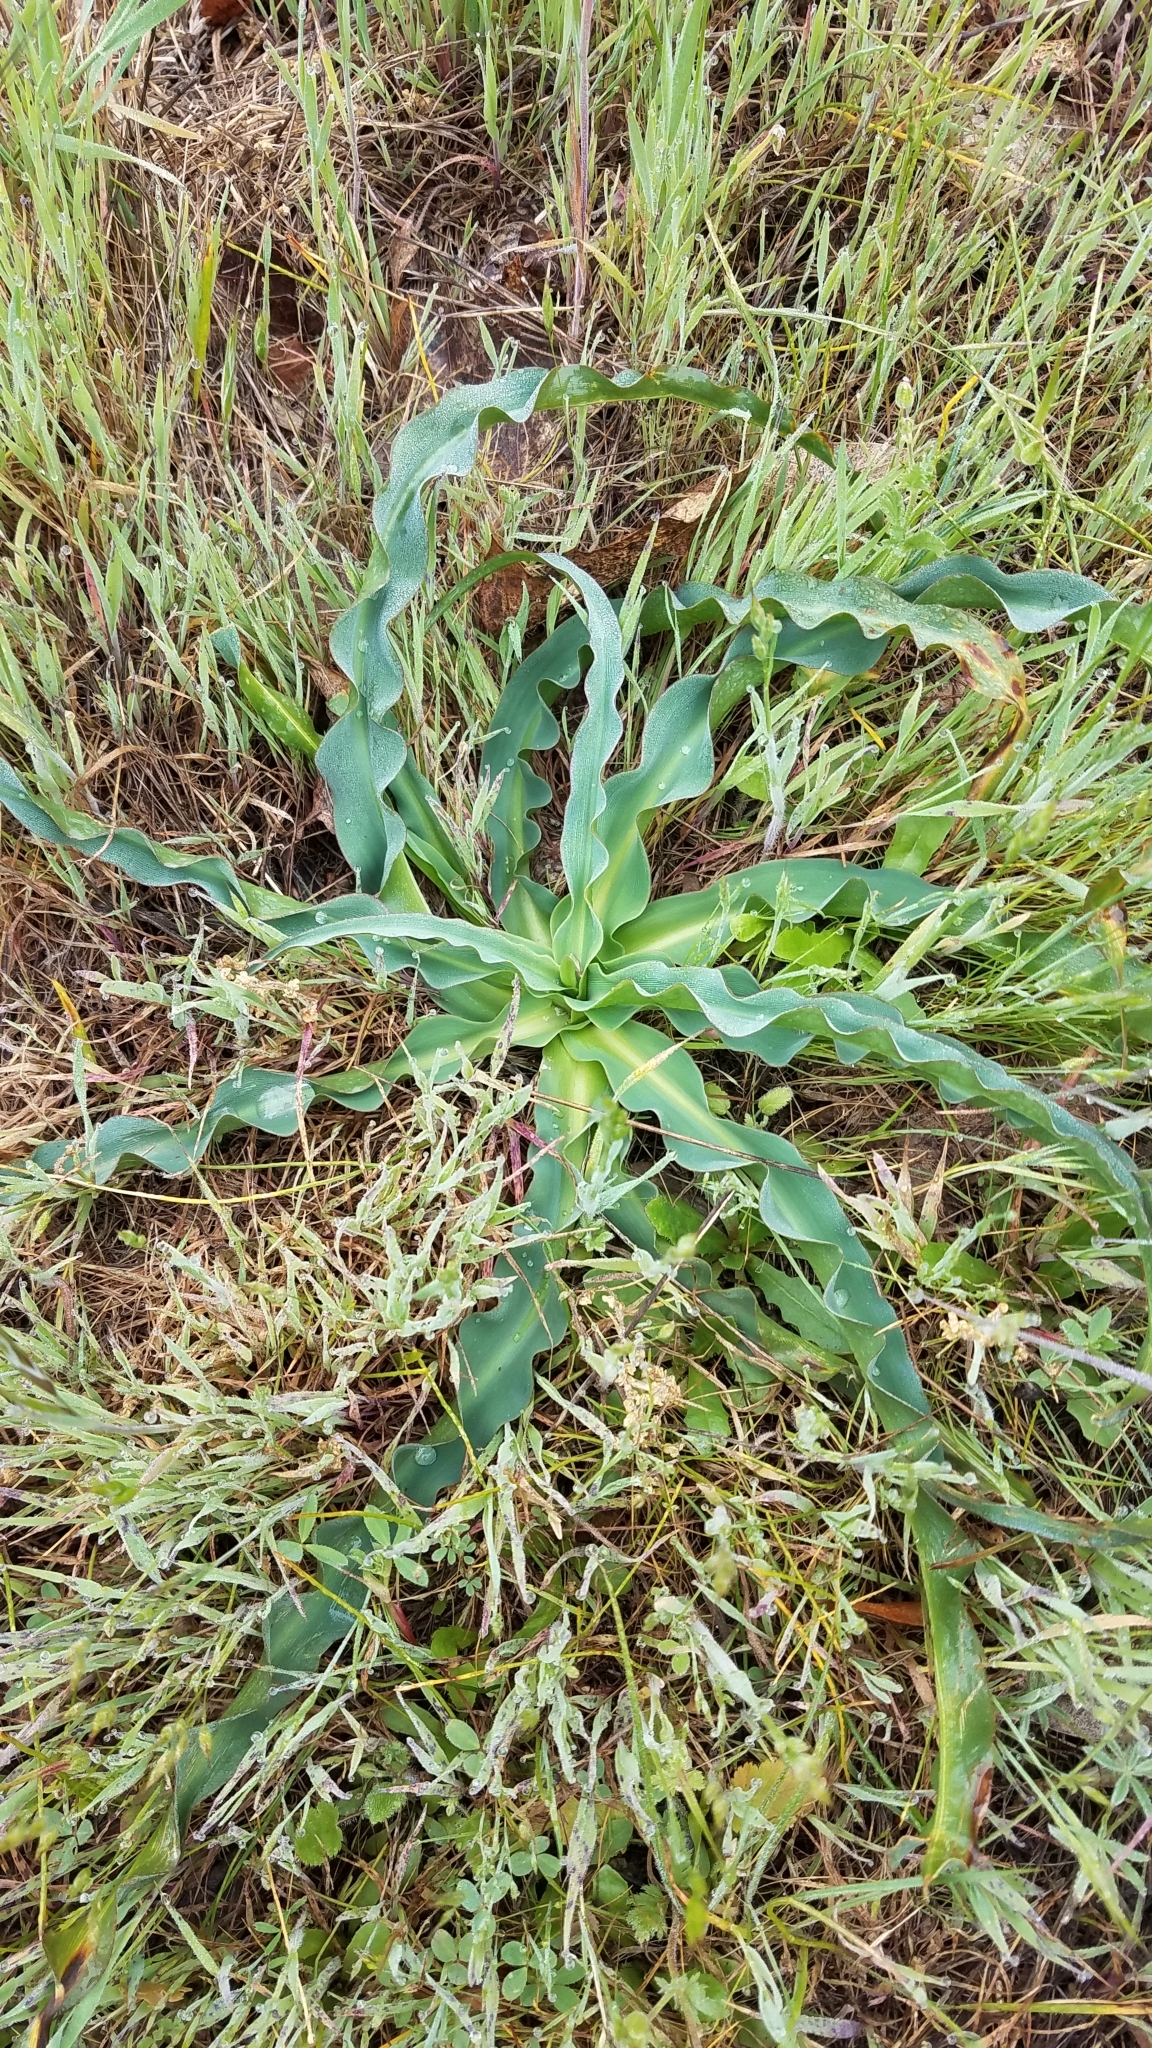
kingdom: Plantae
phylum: Tracheophyta
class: Liliopsida
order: Asparagales
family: Asparagaceae
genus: Chlorogalum
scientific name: Chlorogalum pomeridianum
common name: Amole
